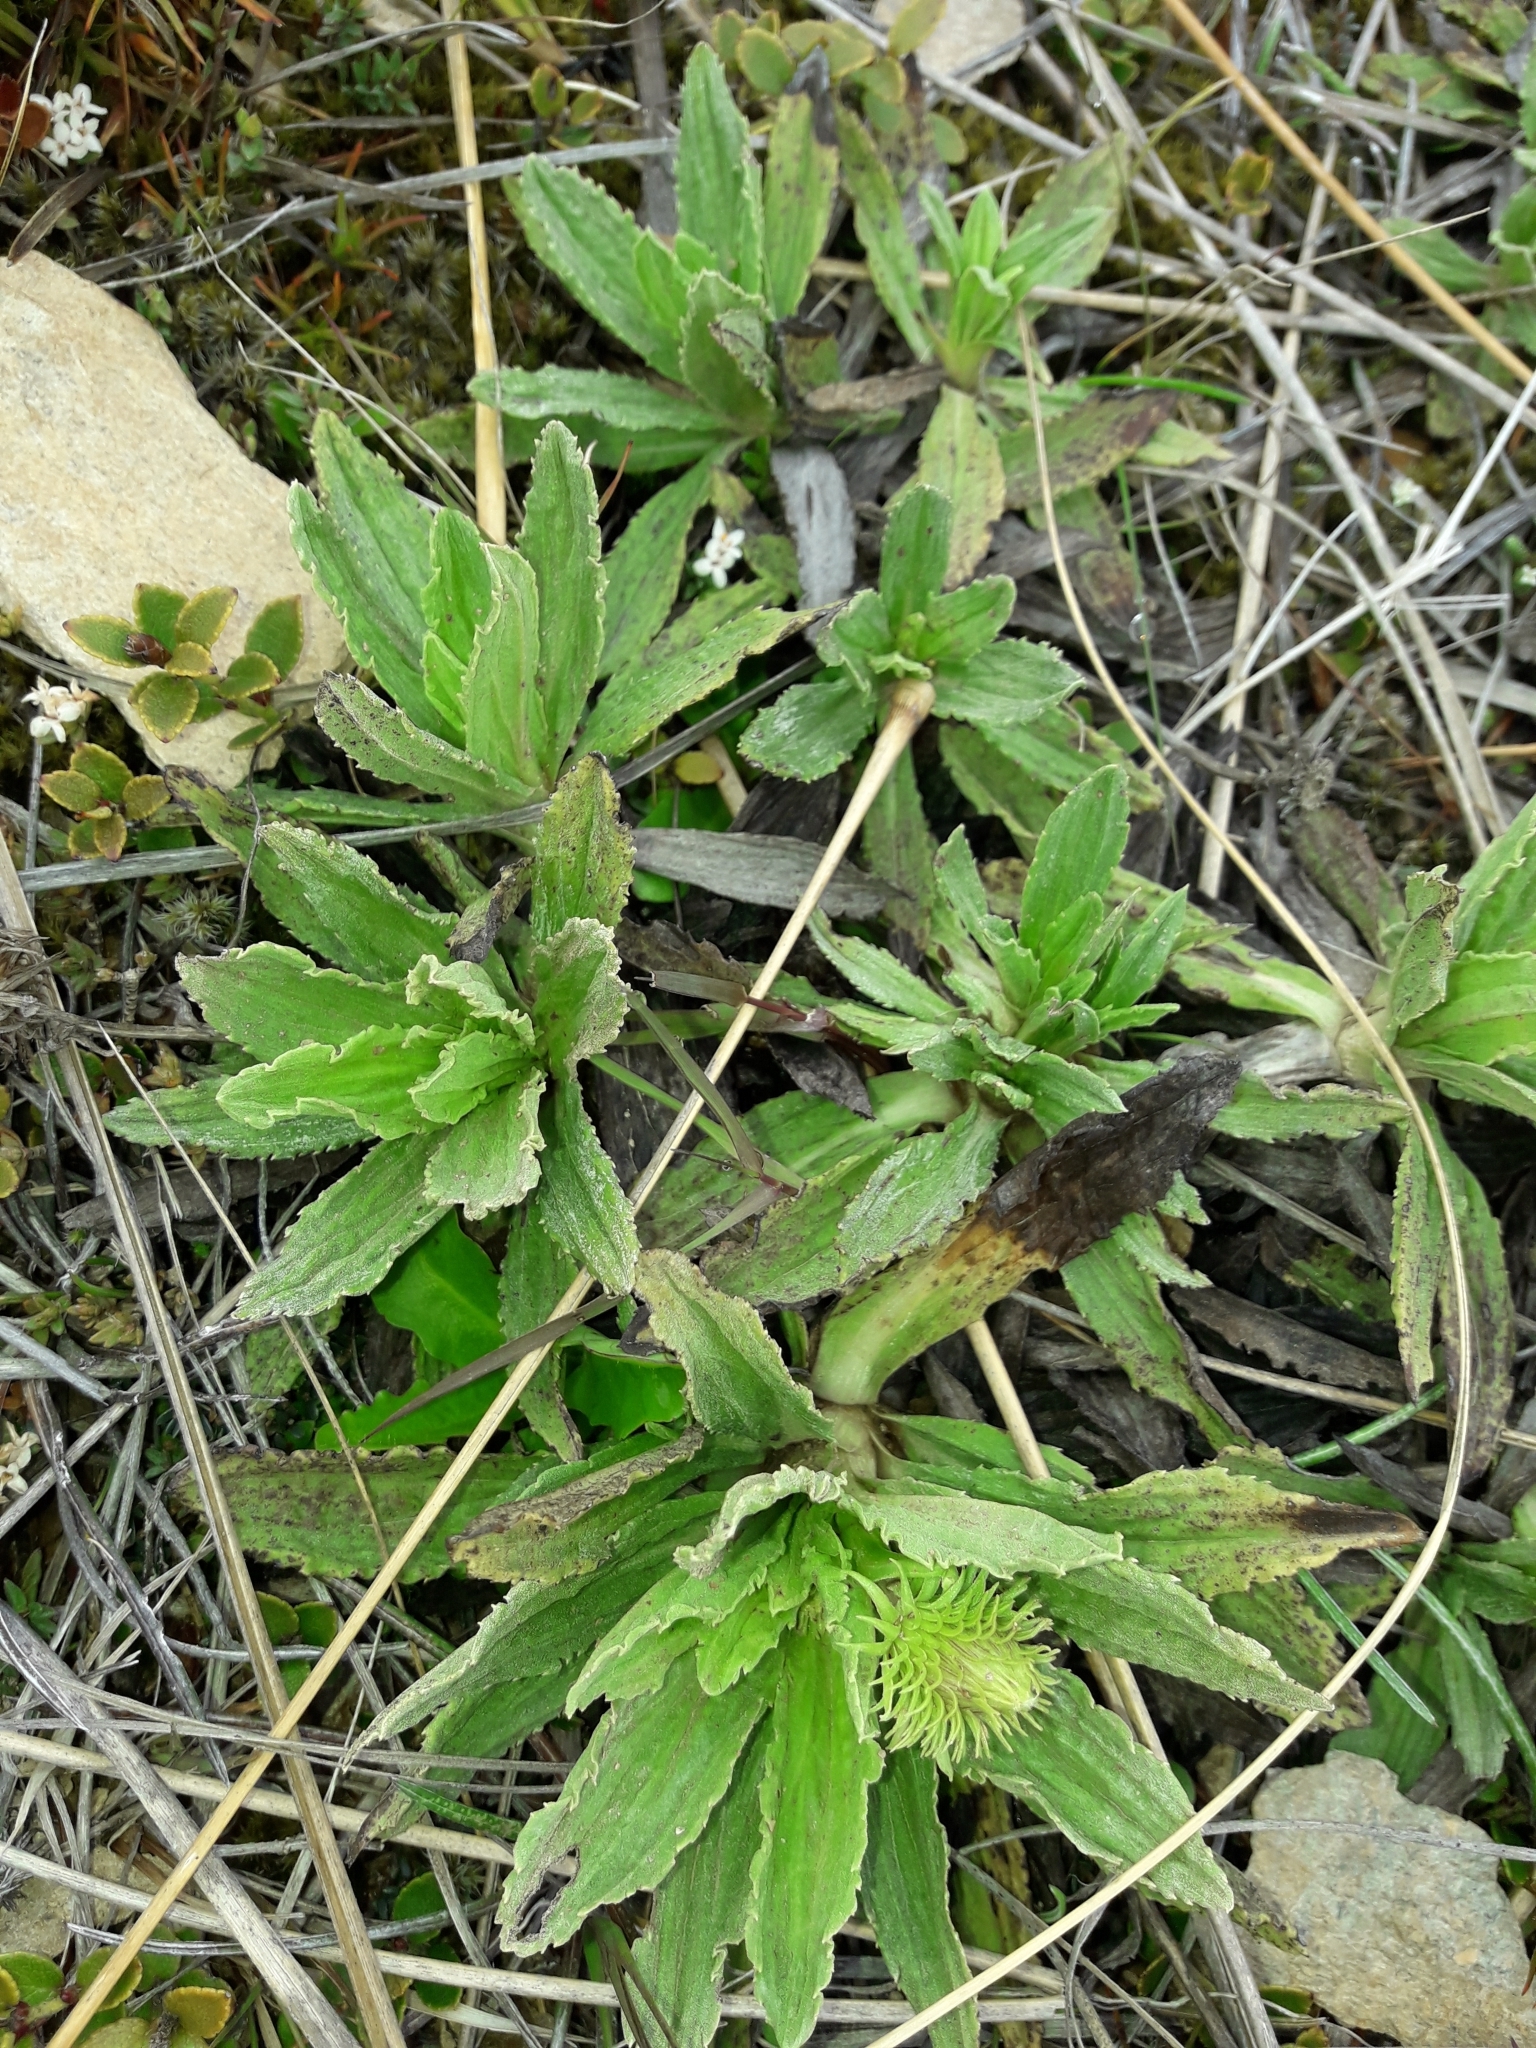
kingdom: Plantae
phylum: Tracheophyta
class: Magnoliopsida
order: Asterales
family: Asteraceae
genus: Celmisia
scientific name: Celmisia prorepens
